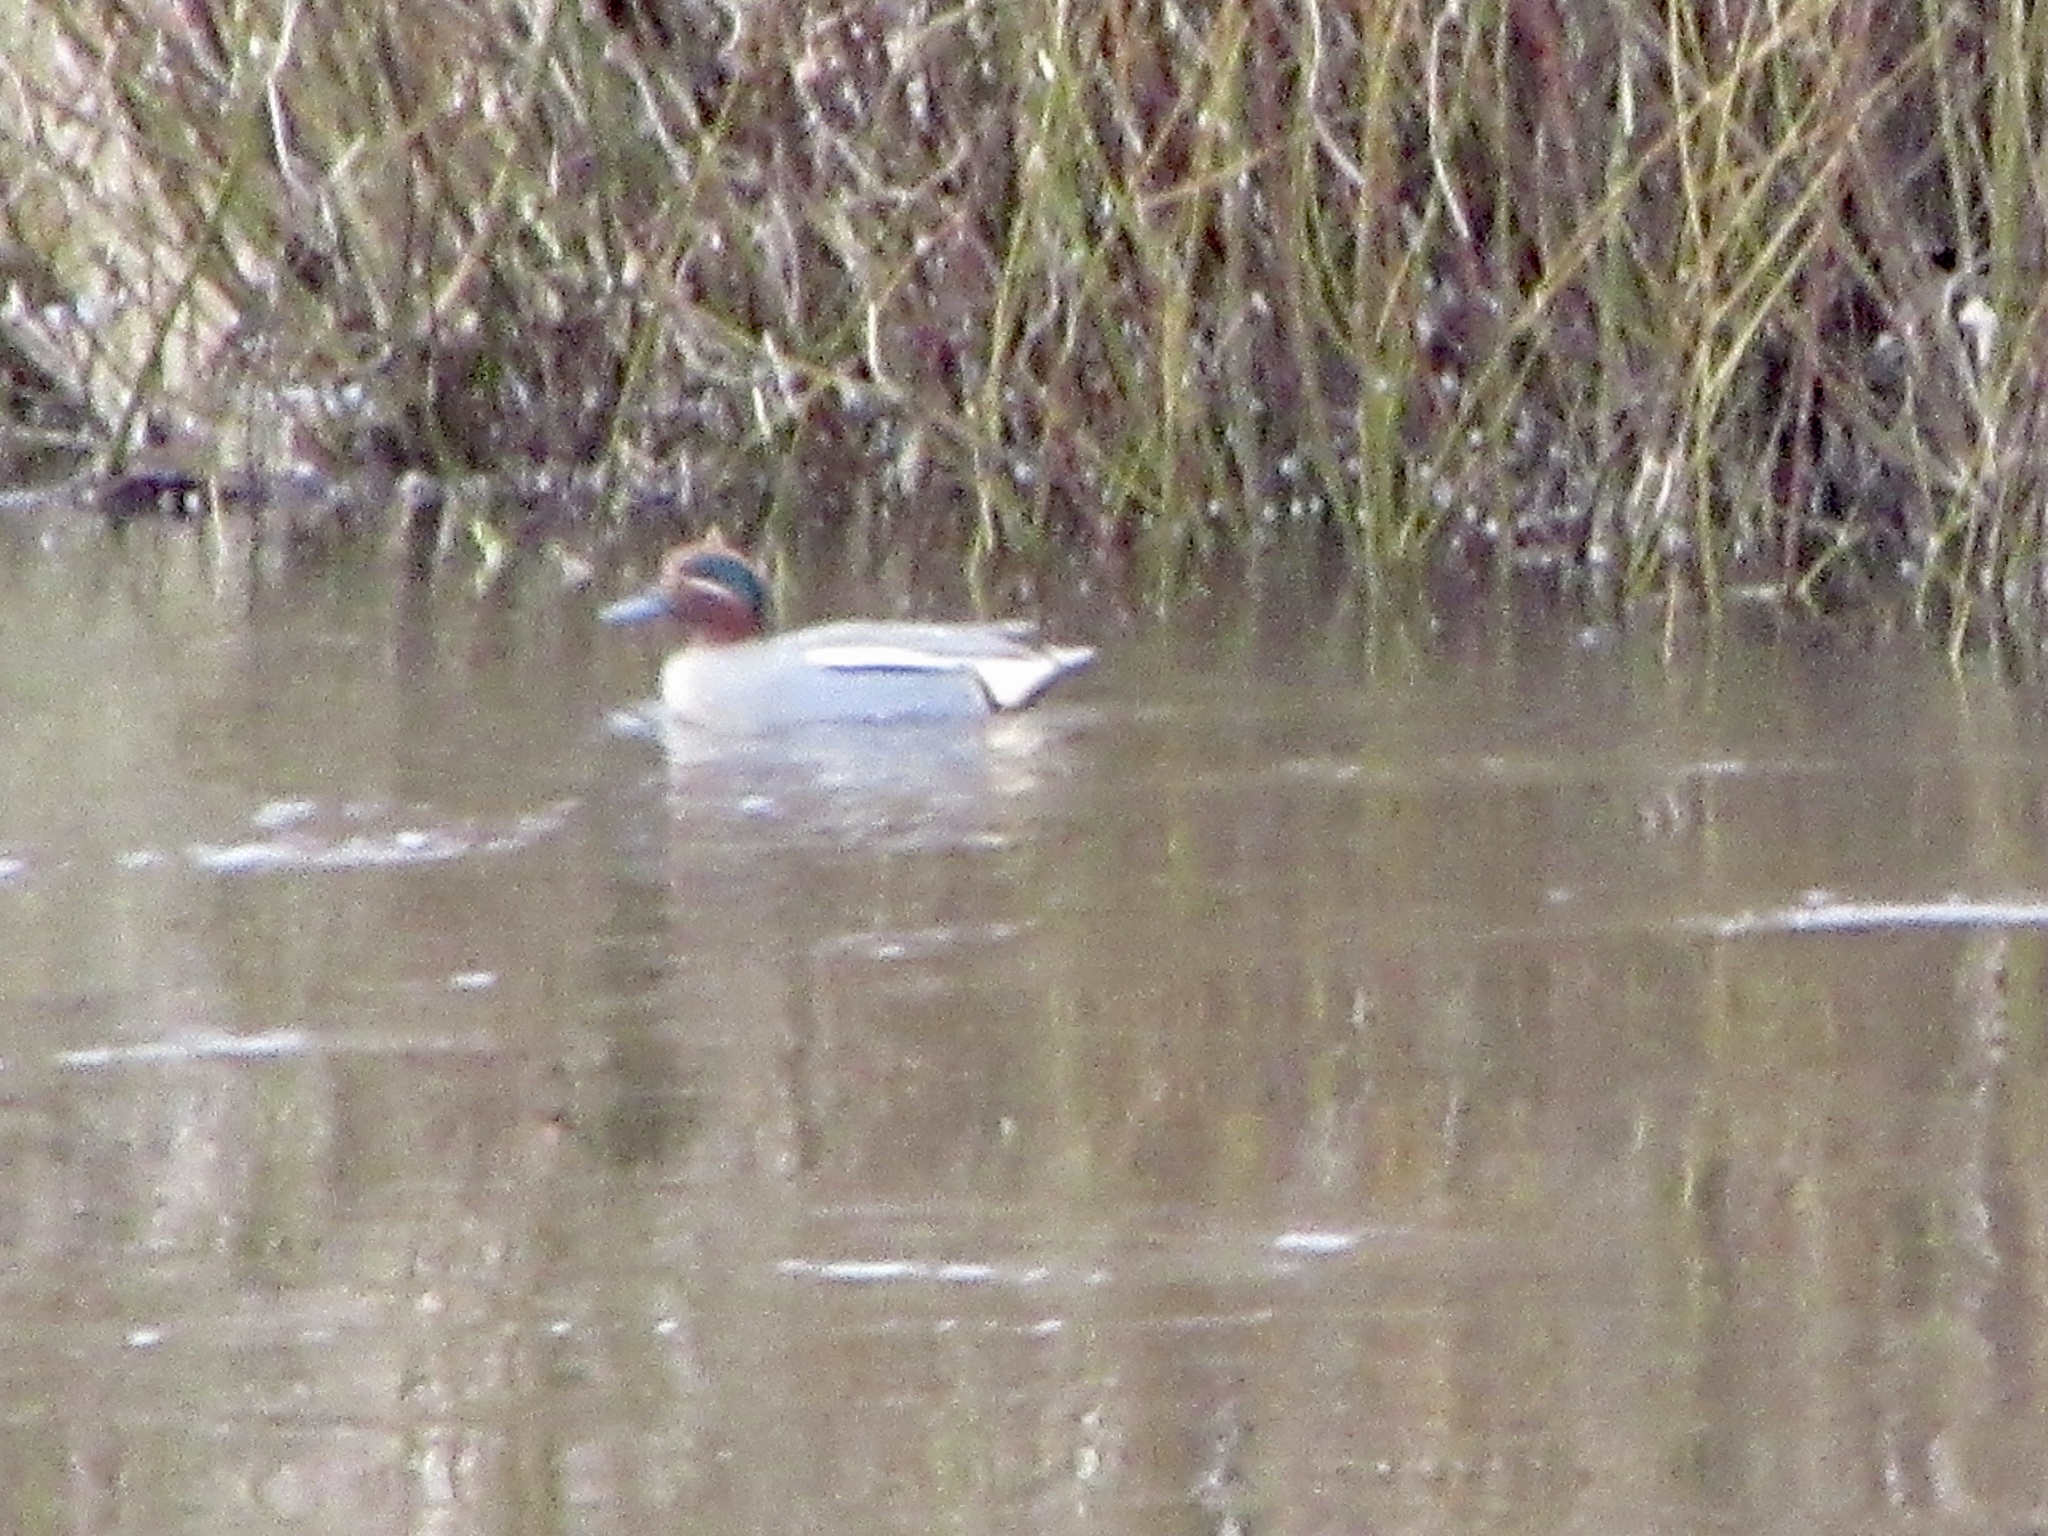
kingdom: Animalia
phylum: Chordata
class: Aves
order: Anseriformes
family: Anatidae
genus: Anas
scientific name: Anas crecca
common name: Eurasian teal
